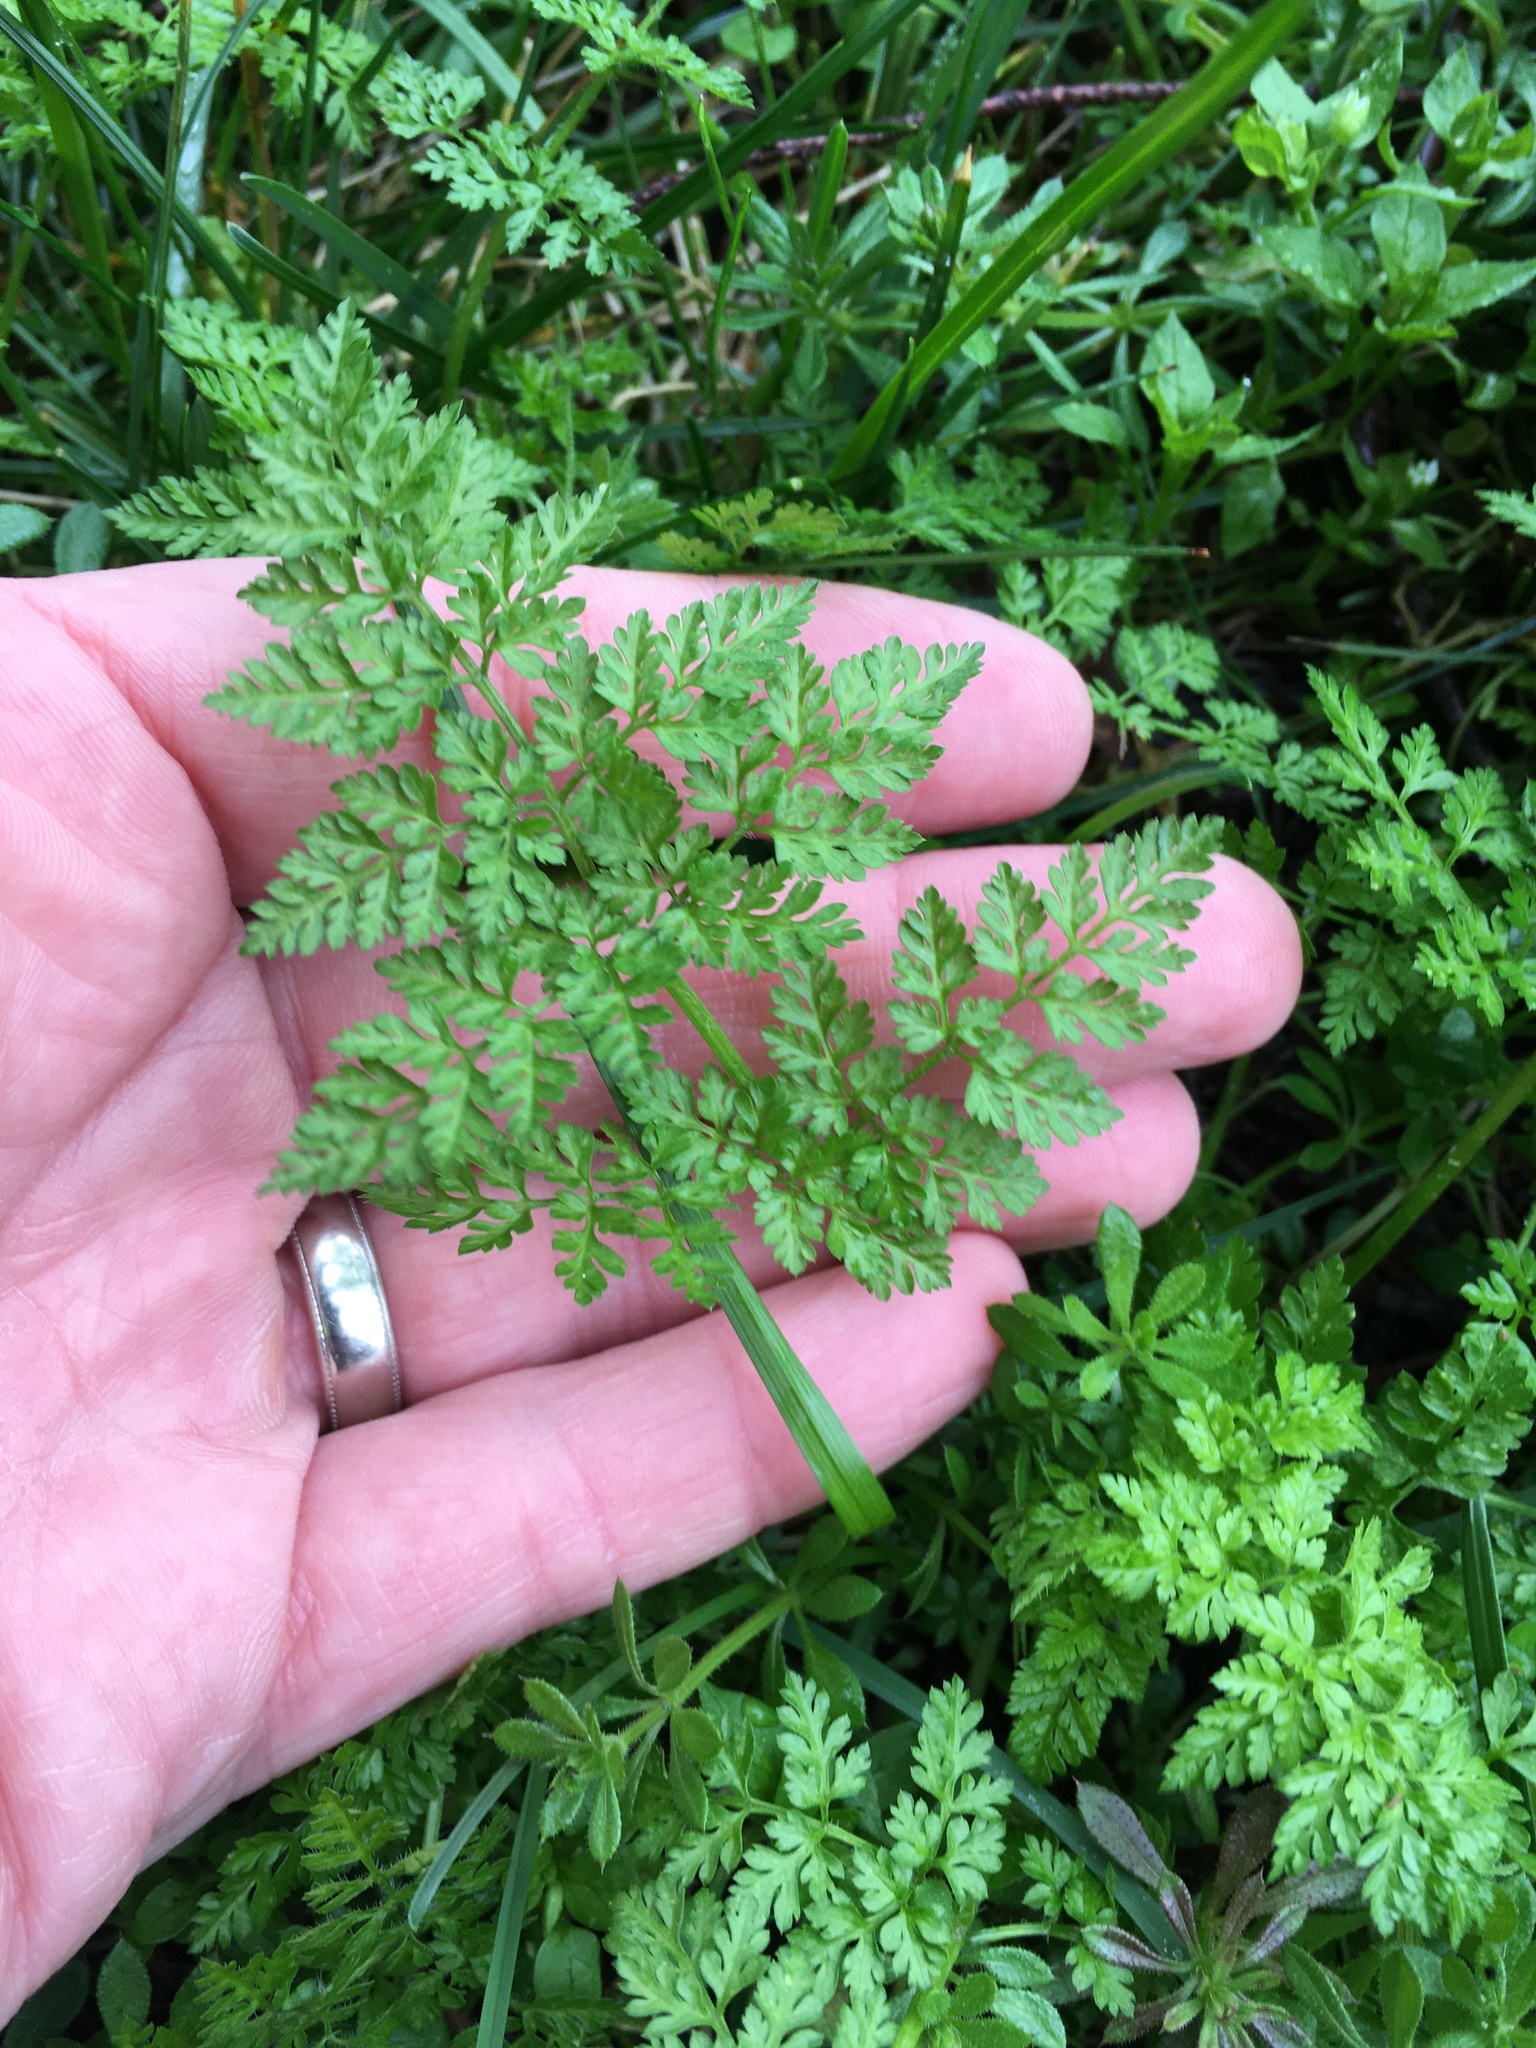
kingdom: Plantae
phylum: Tracheophyta
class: Magnoliopsida
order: Apiales
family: Apiaceae
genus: Anthriscus
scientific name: Anthriscus caucalis
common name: Bur chervil
